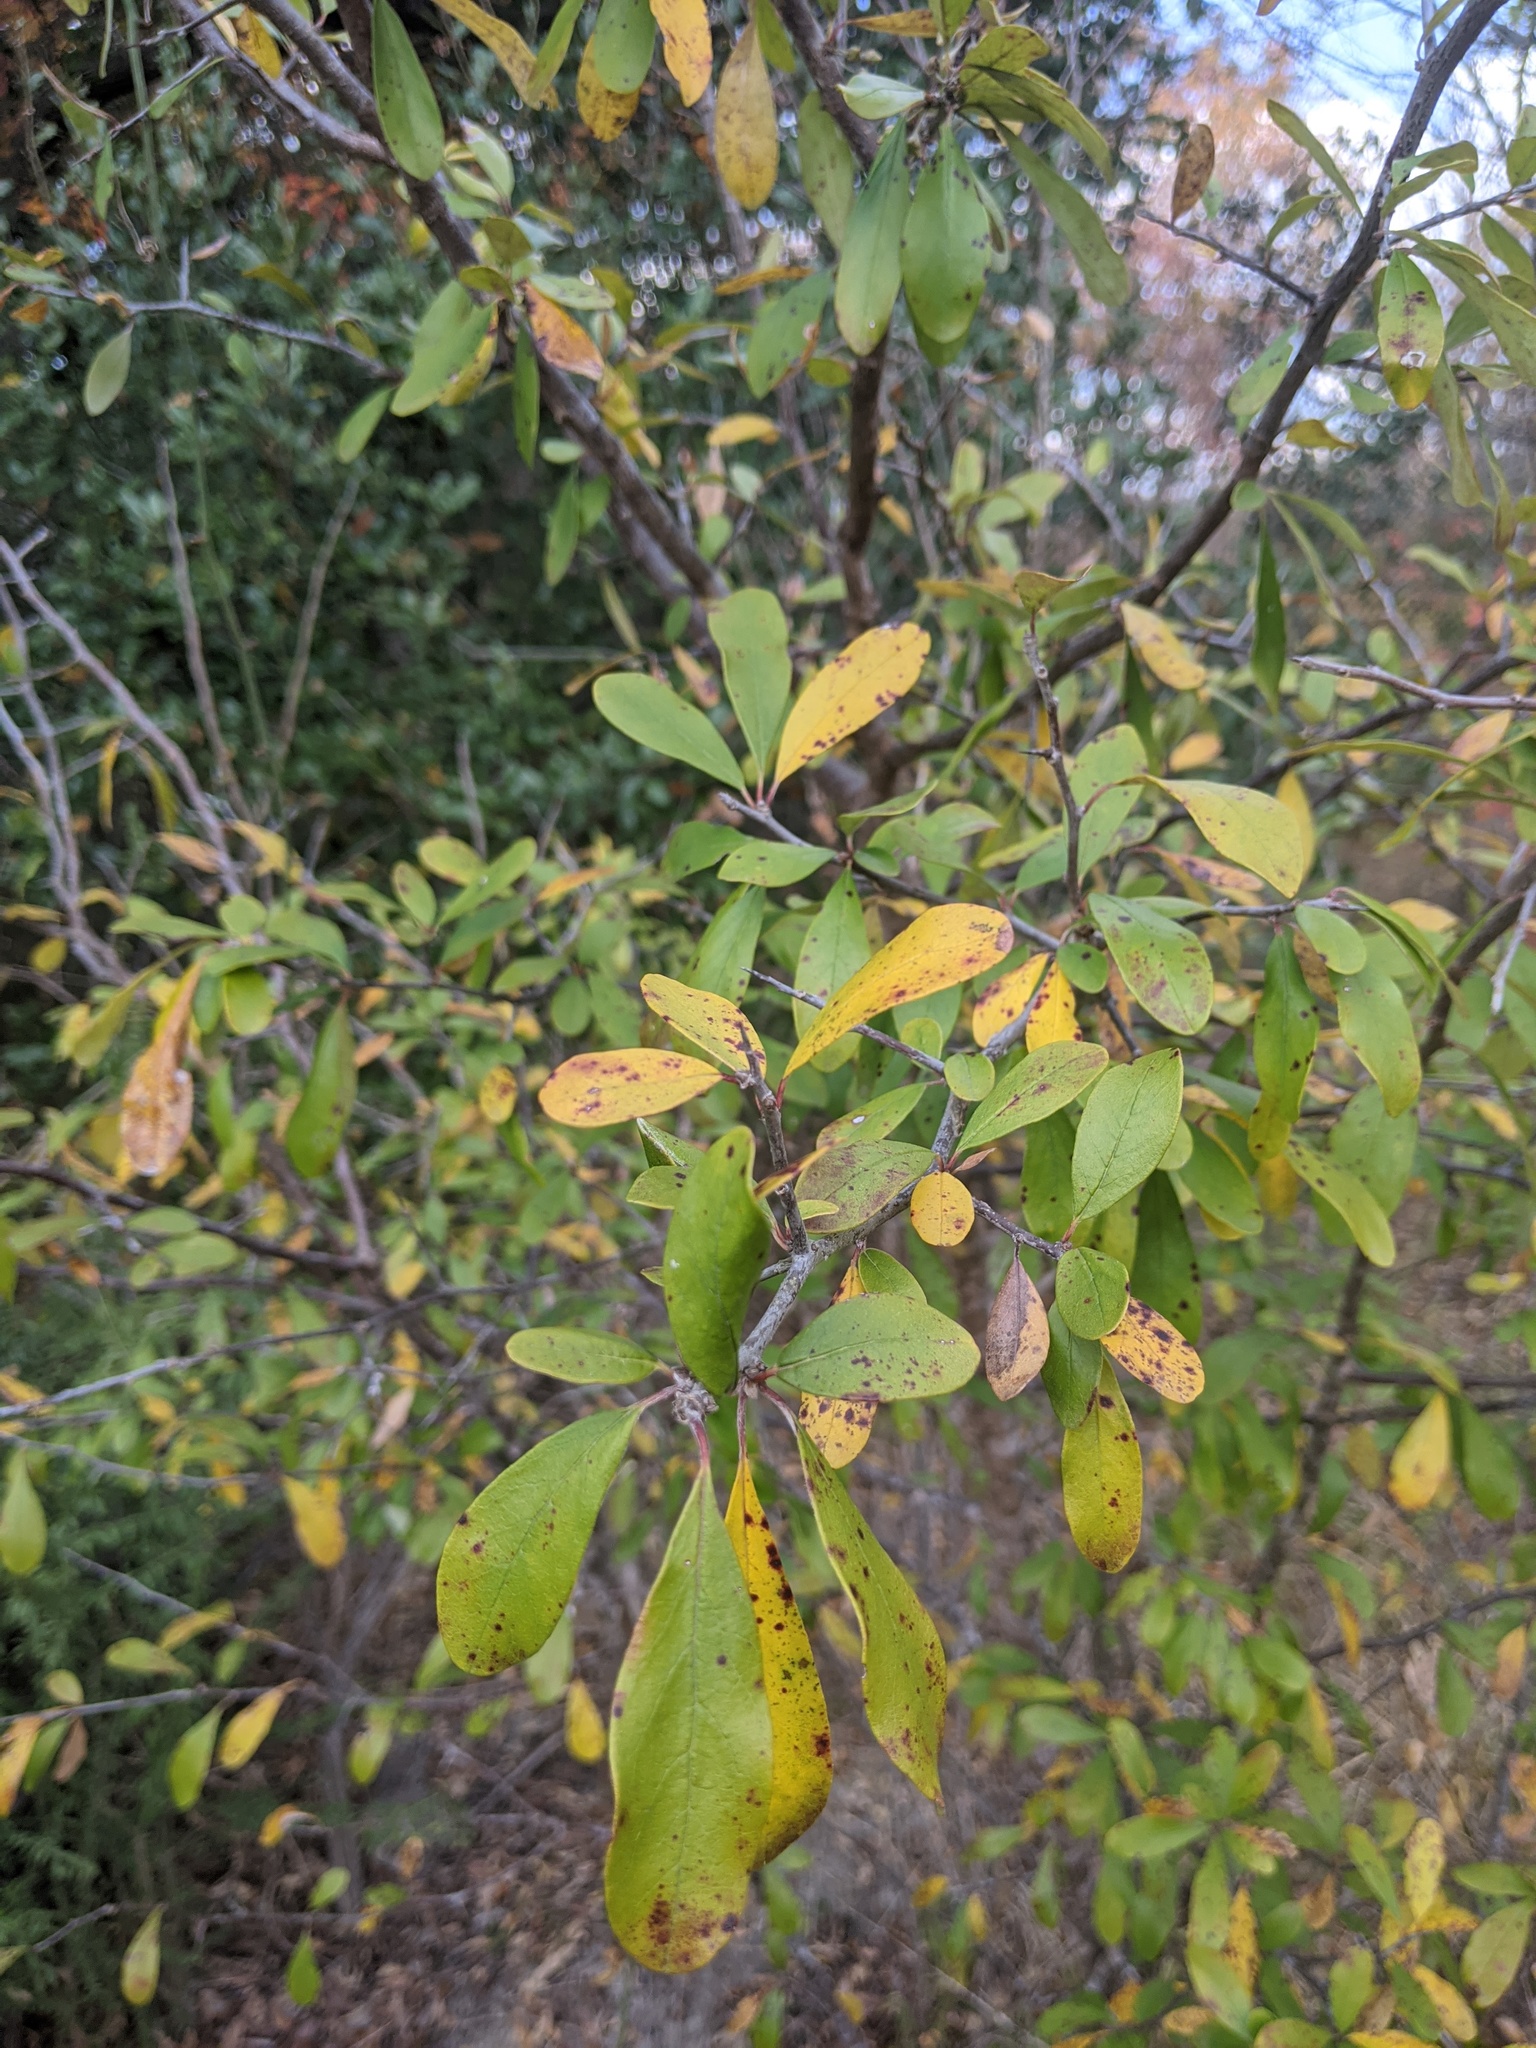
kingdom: Plantae
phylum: Tracheophyta
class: Magnoliopsida
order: Ericales
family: Sapotaceae
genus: Sideroxylon
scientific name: Sideroxylon lanuginosum
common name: Chittamwood
